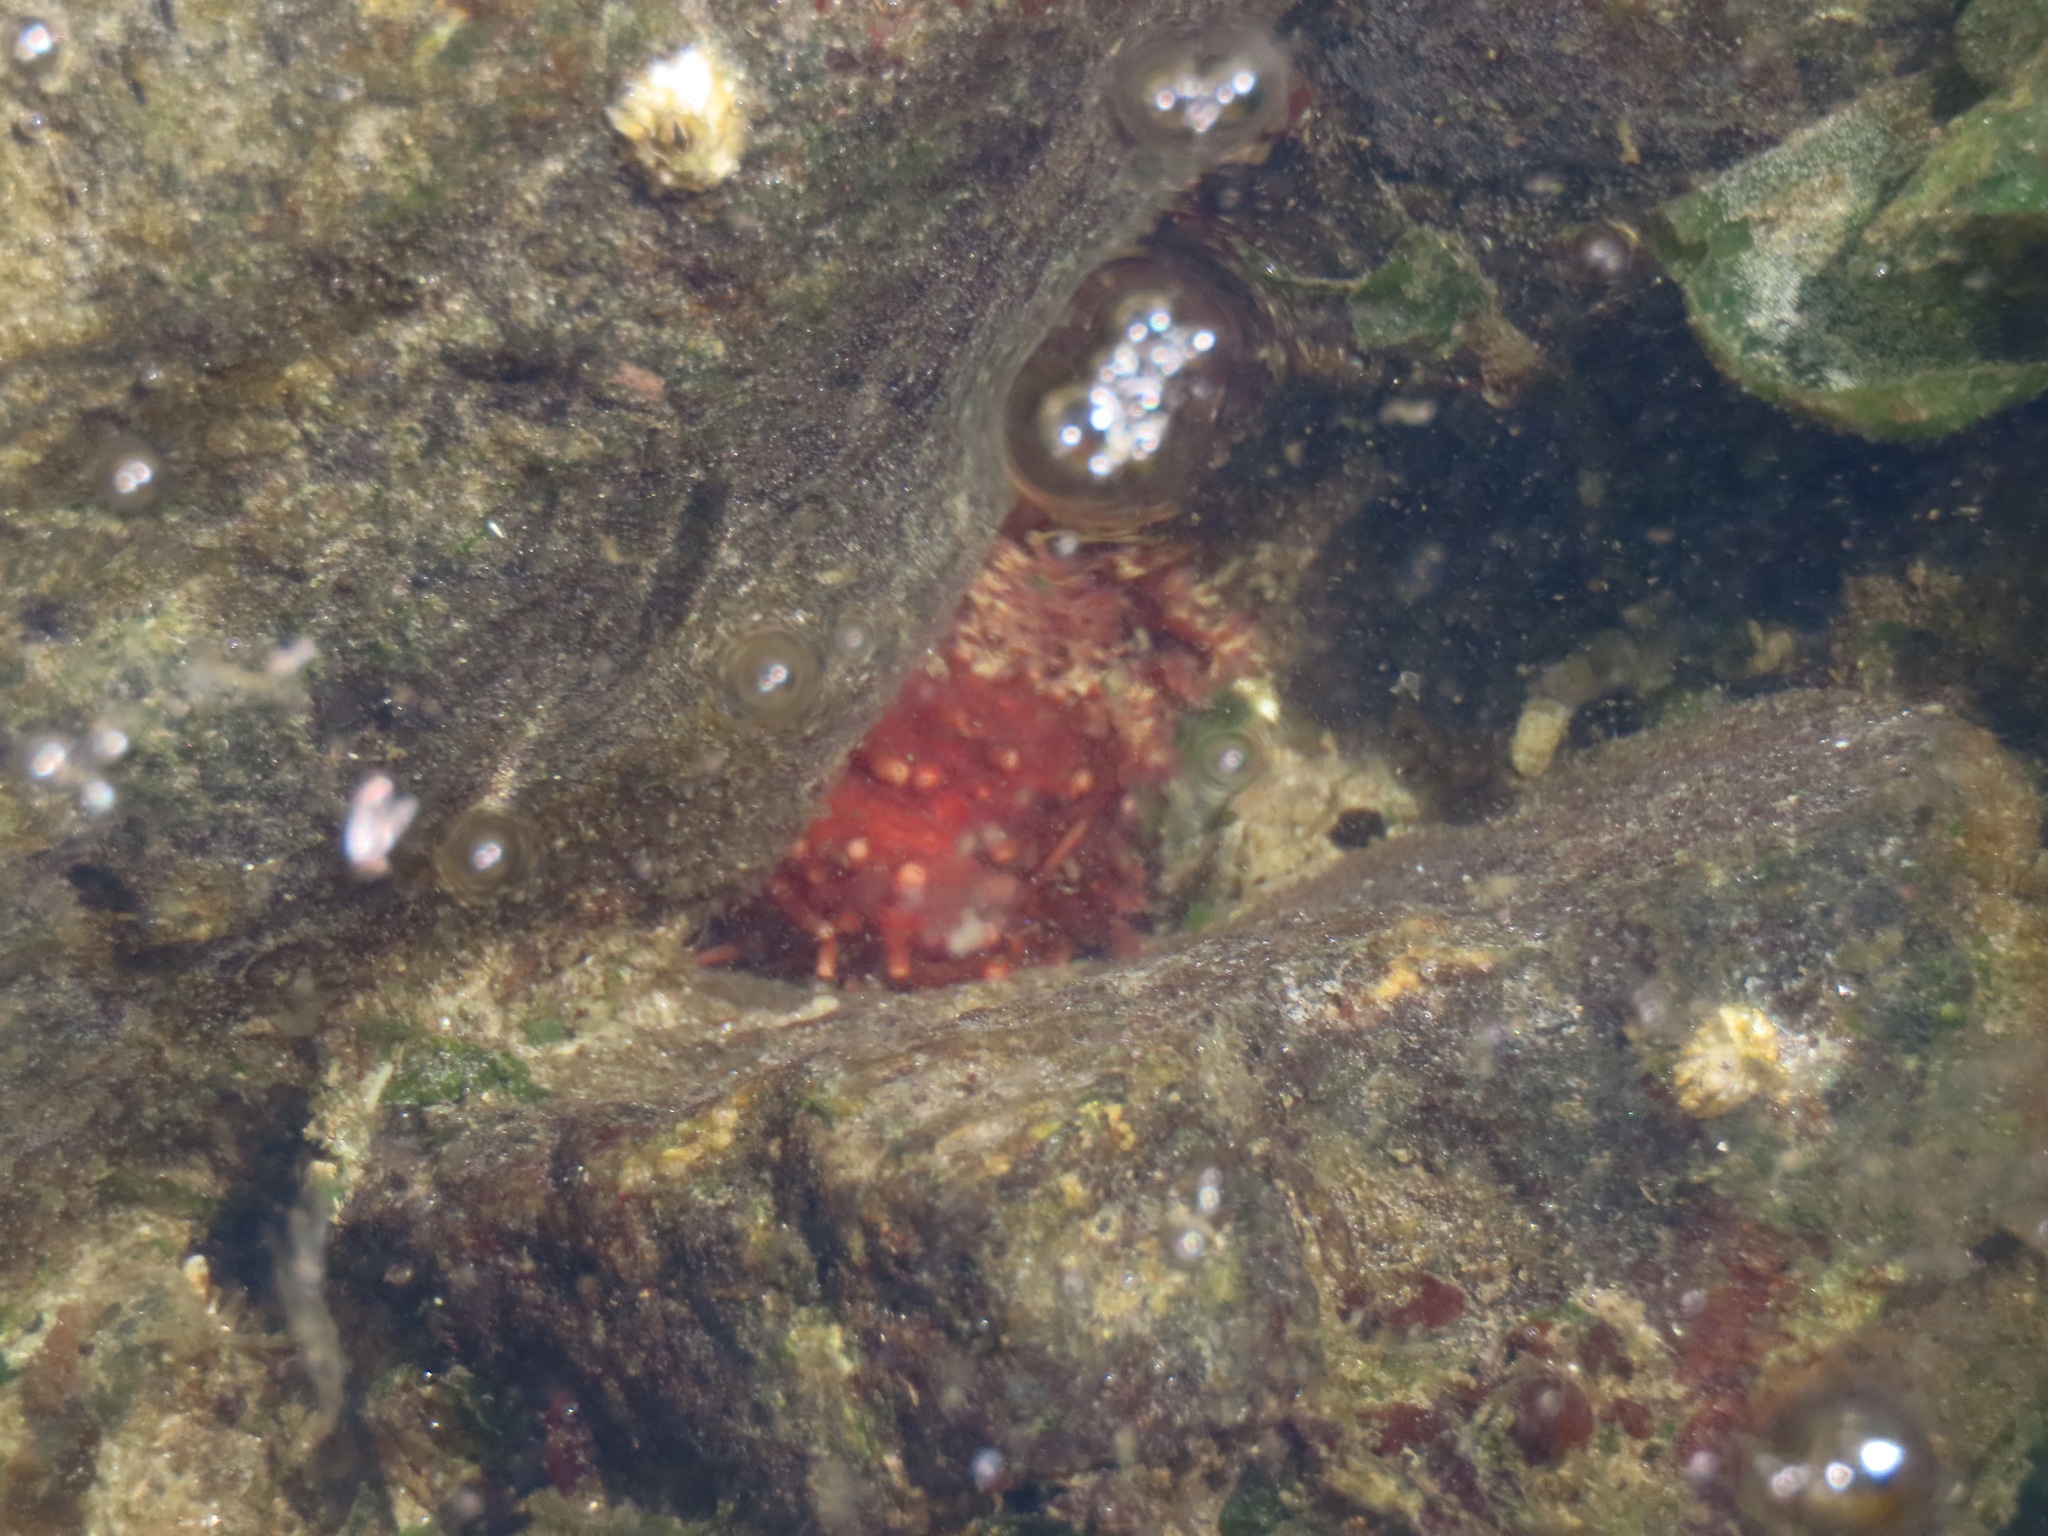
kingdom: Animalia
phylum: Echinodermata
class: Holothuroidea
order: Dendrochirotida
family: Cucumariidae
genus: Cucumaria
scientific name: Cucumaria miniata
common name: Orange sea cucumber
